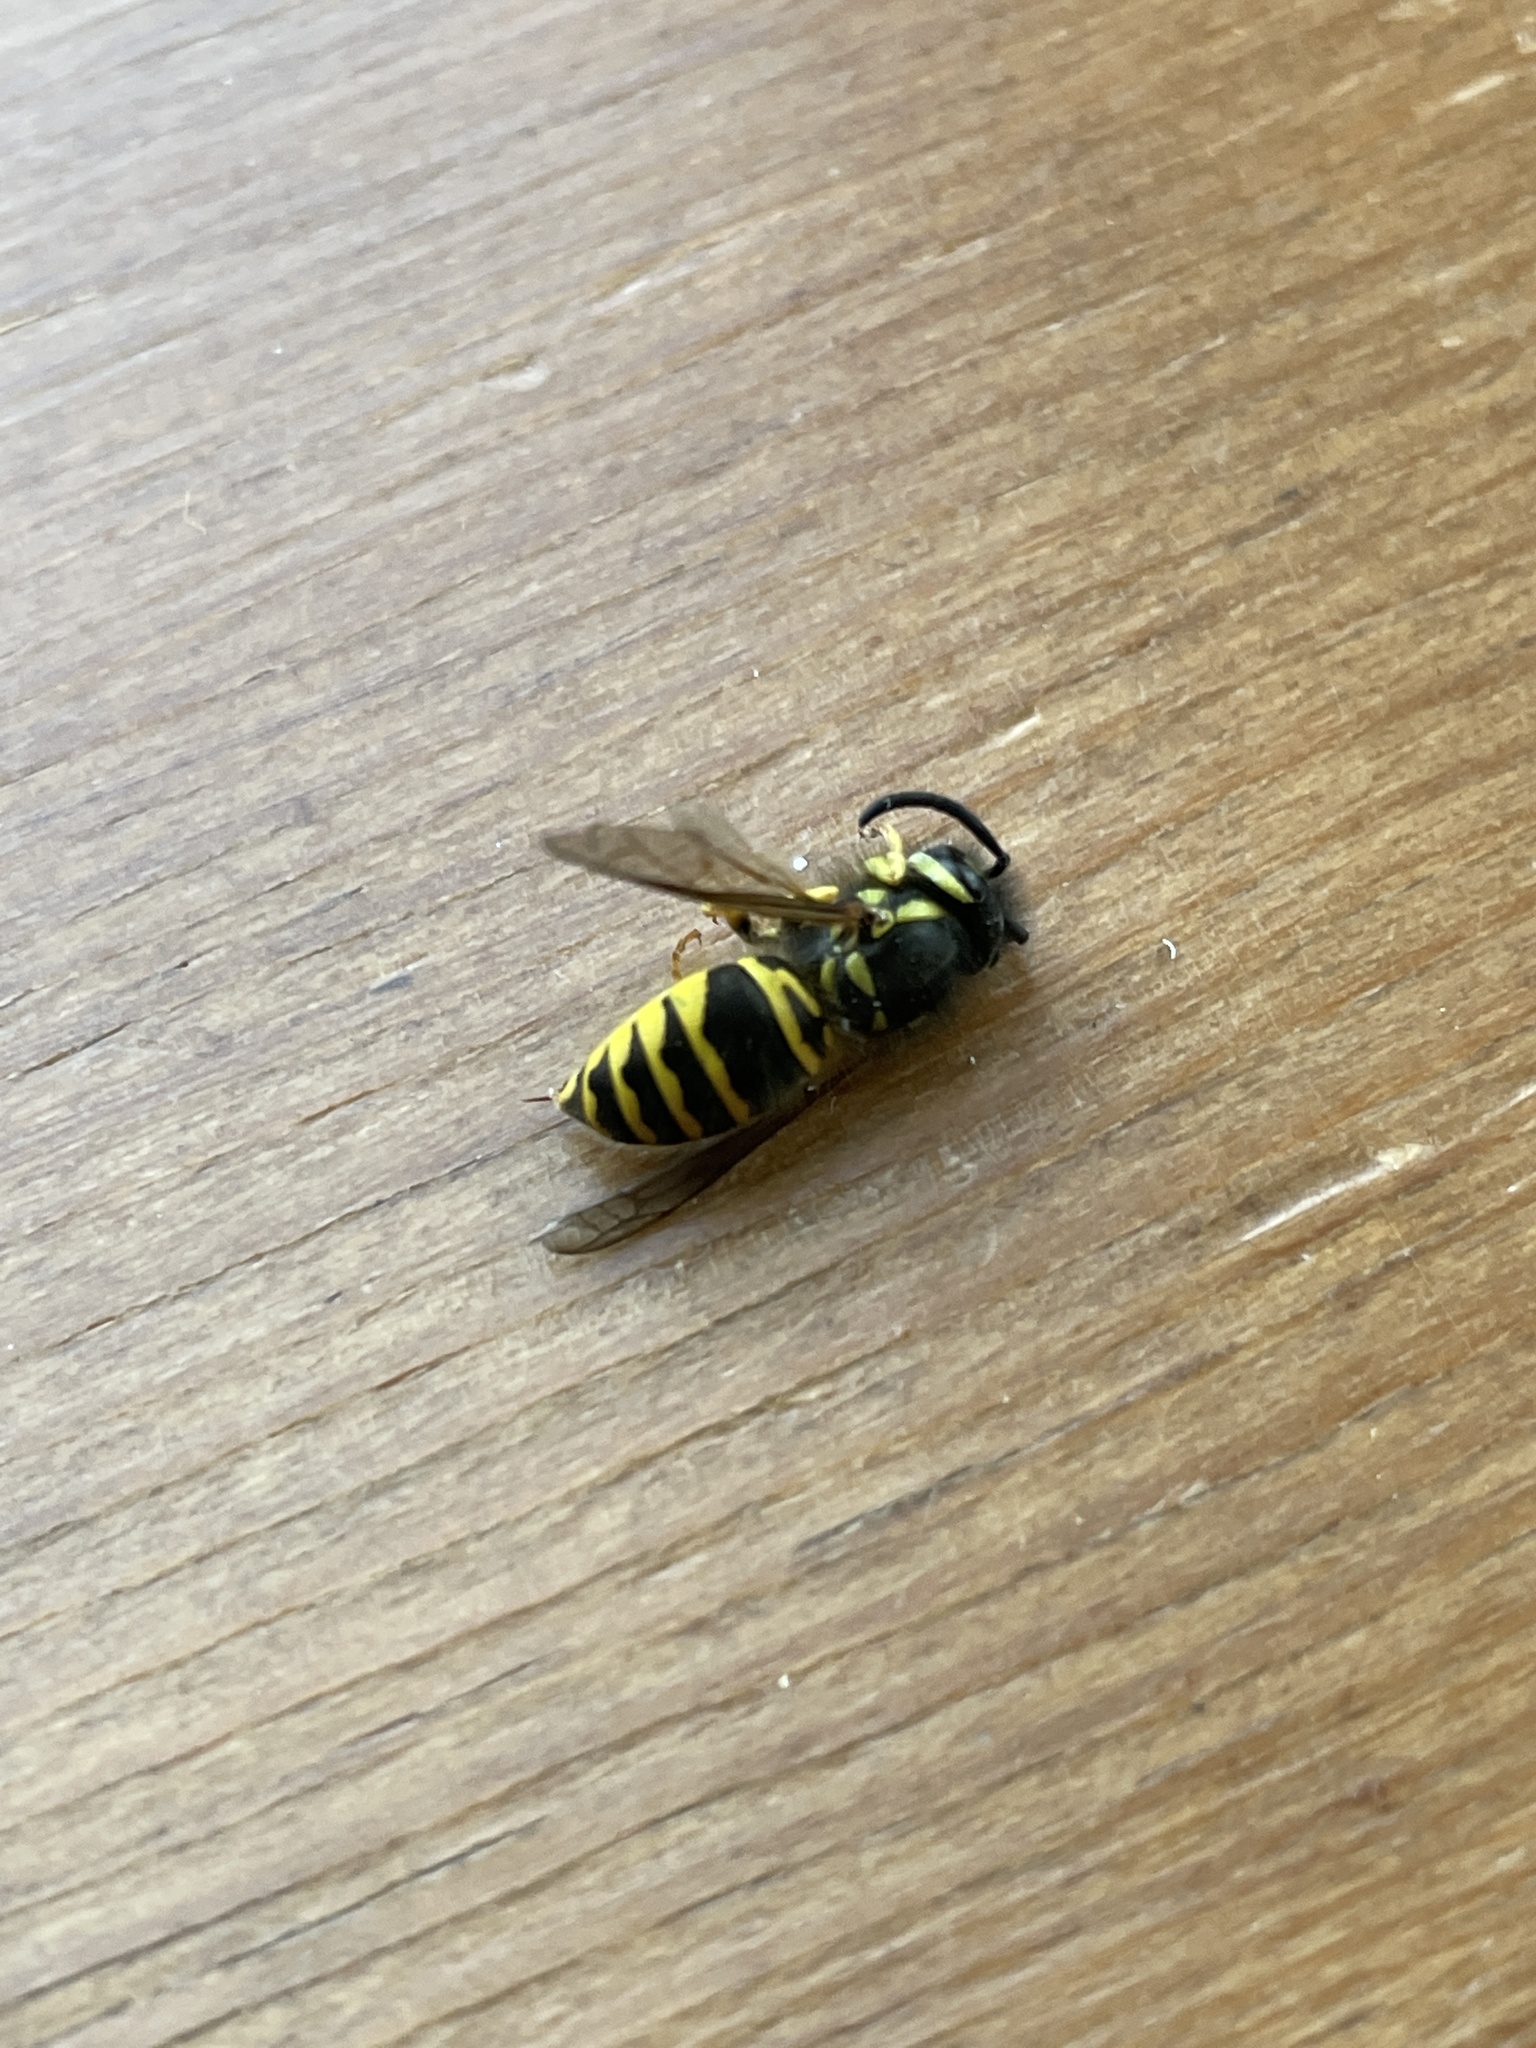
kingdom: Animalia
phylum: Arthropoda
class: Insecta
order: Hymenoptera
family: Vespidae
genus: Vespula
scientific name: Vespula maculifrons
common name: Eastern yellowjacket
